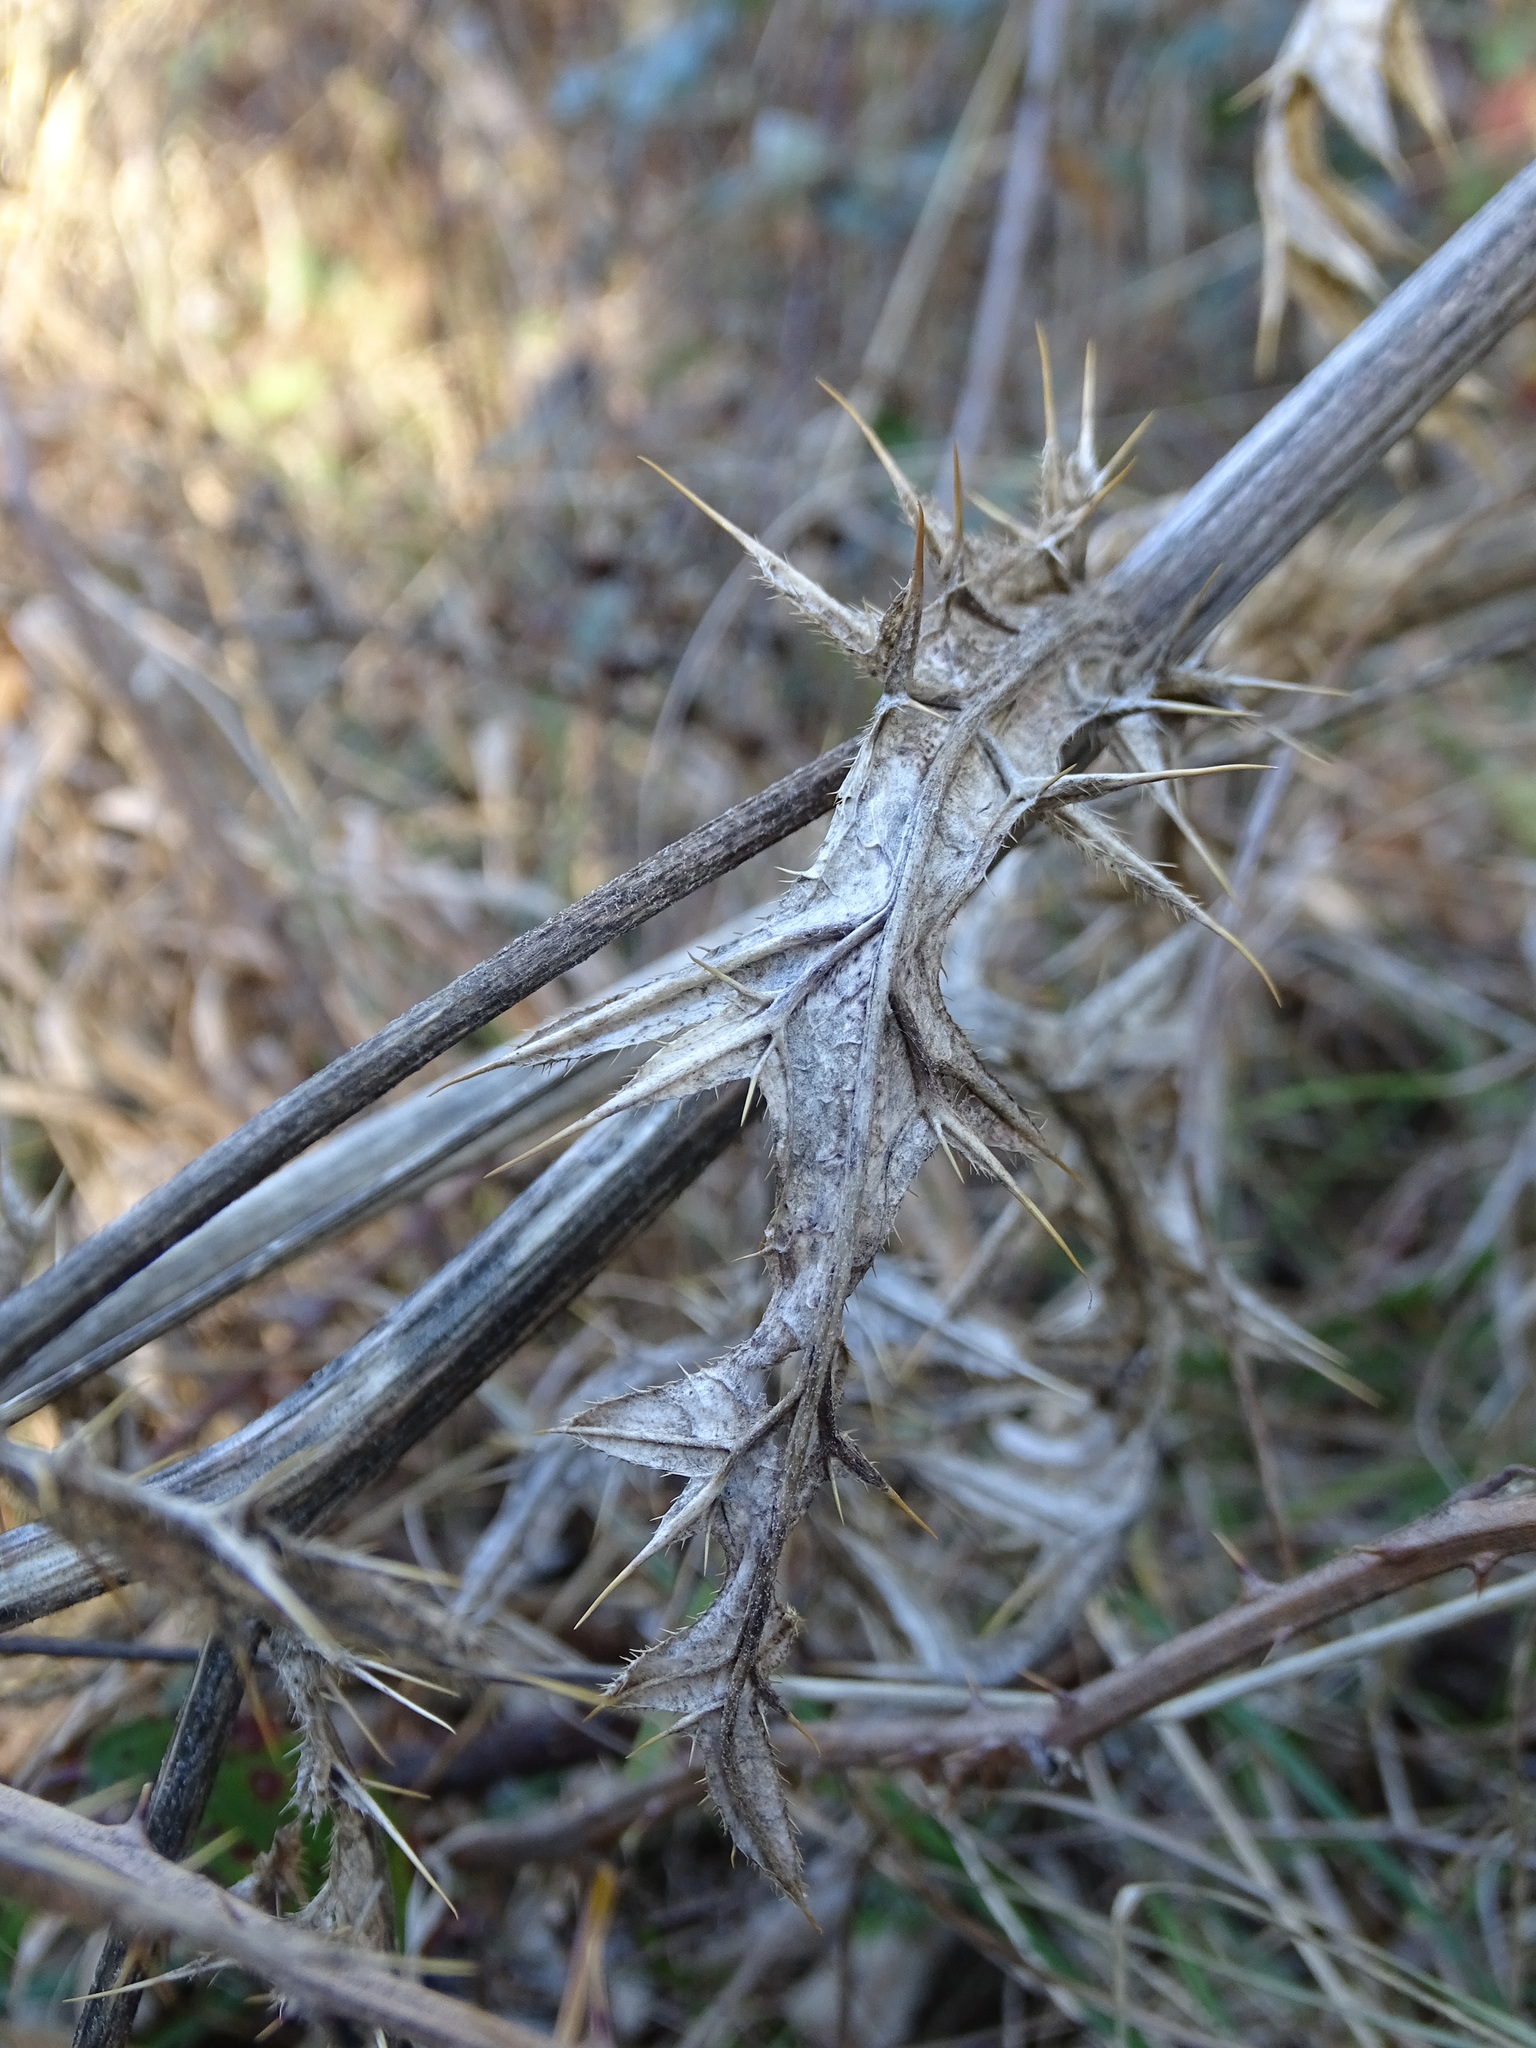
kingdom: Plantae
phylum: Tracheophyta
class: Magnoliopsida
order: Asterales
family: Asteraceae
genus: Lophiolepis
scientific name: Lophiolepis eriophora
